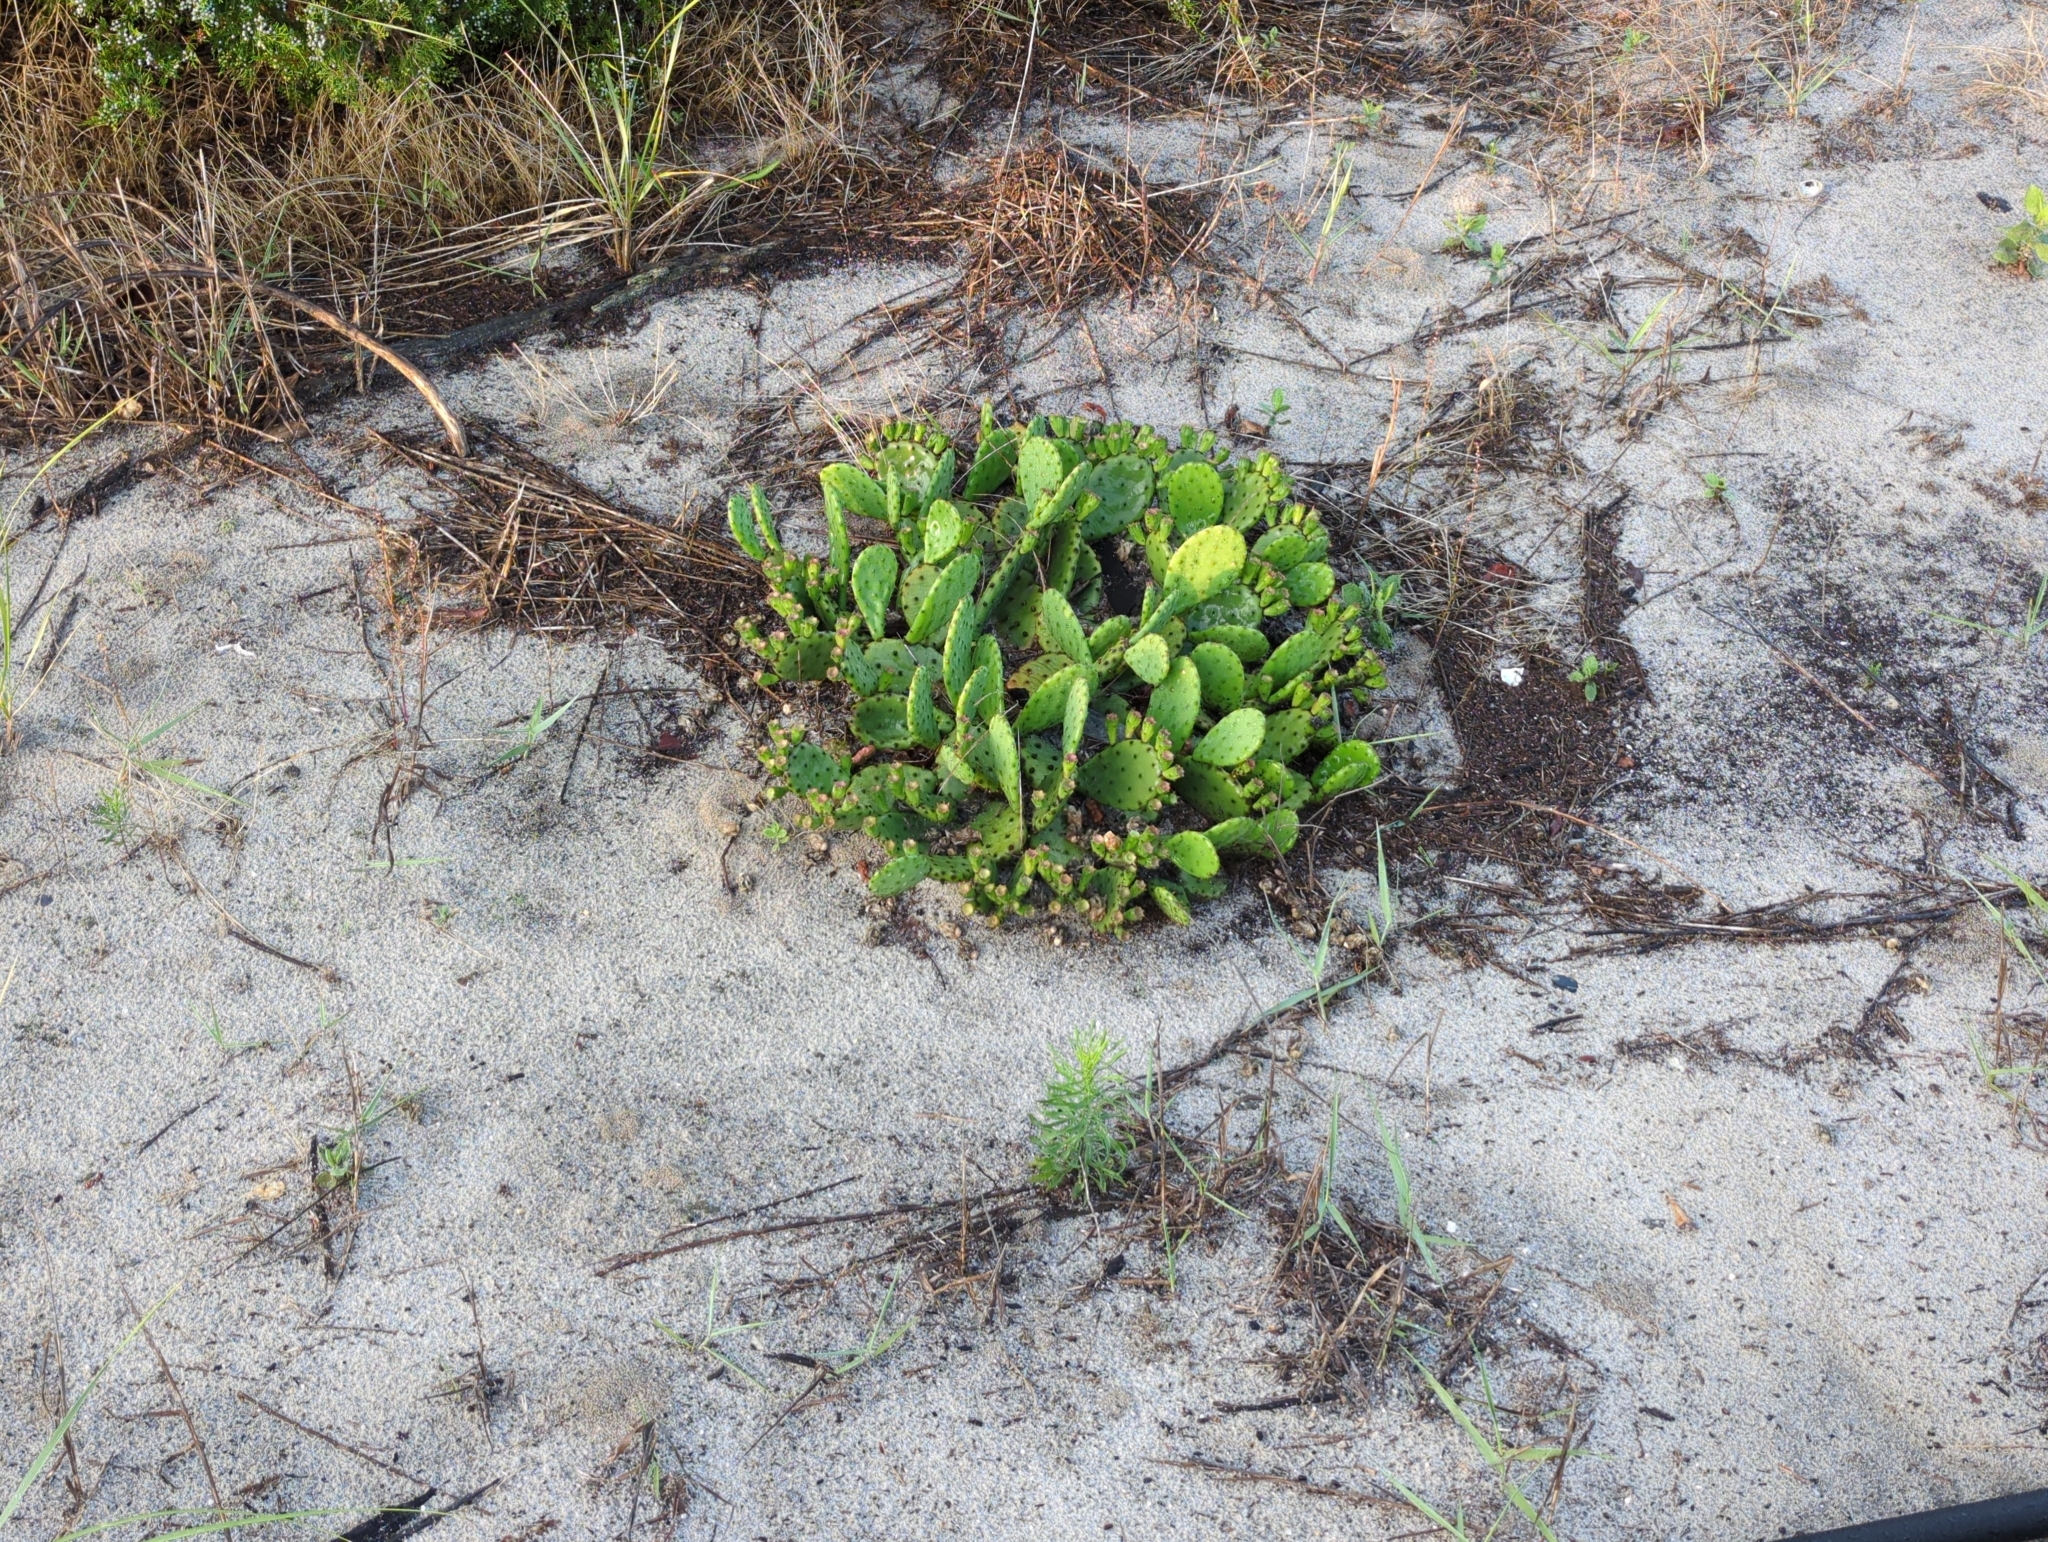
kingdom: Plantae
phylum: Tracheophyta
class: Magnoliopsida
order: Caryophyllales
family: Cactaceae
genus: Opuntia
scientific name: Opuntia humifusa
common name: Eastern prickly-pear
